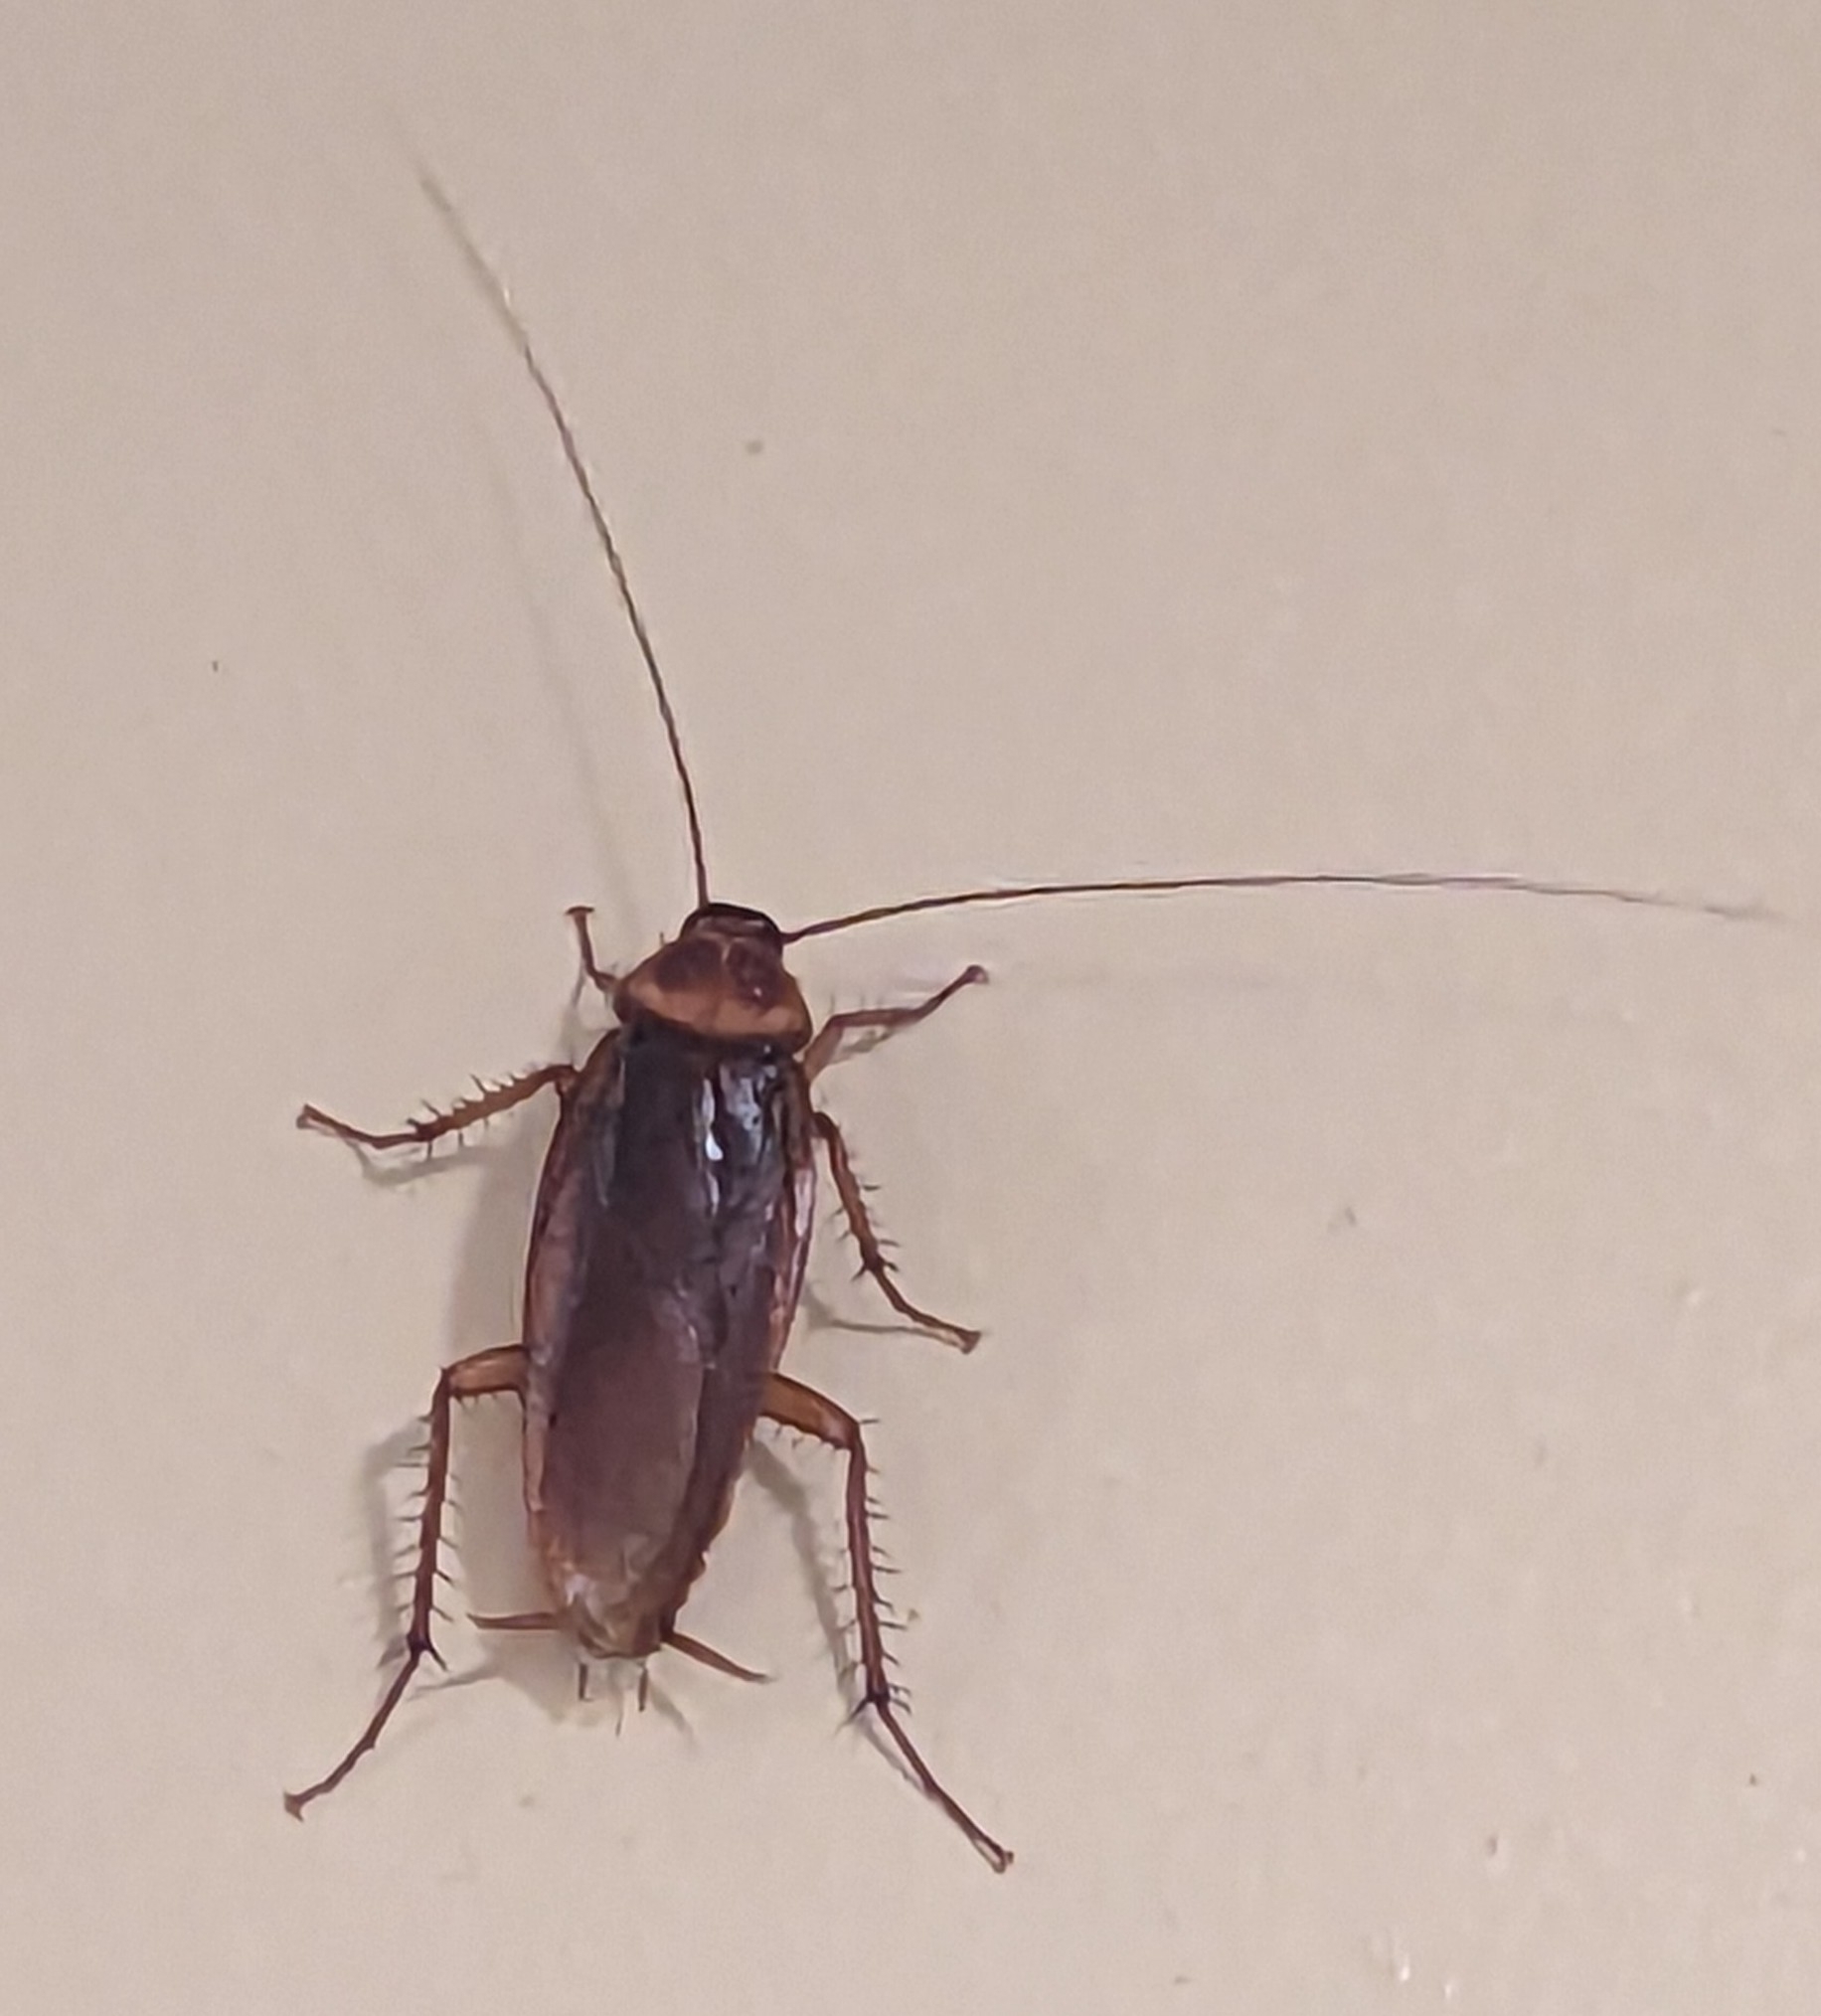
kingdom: Animalia
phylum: Arthropoda
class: Insecta
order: Blattodea
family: Blattidae
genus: Periplaneta
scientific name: Periplaneta americana
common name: American cockroach
